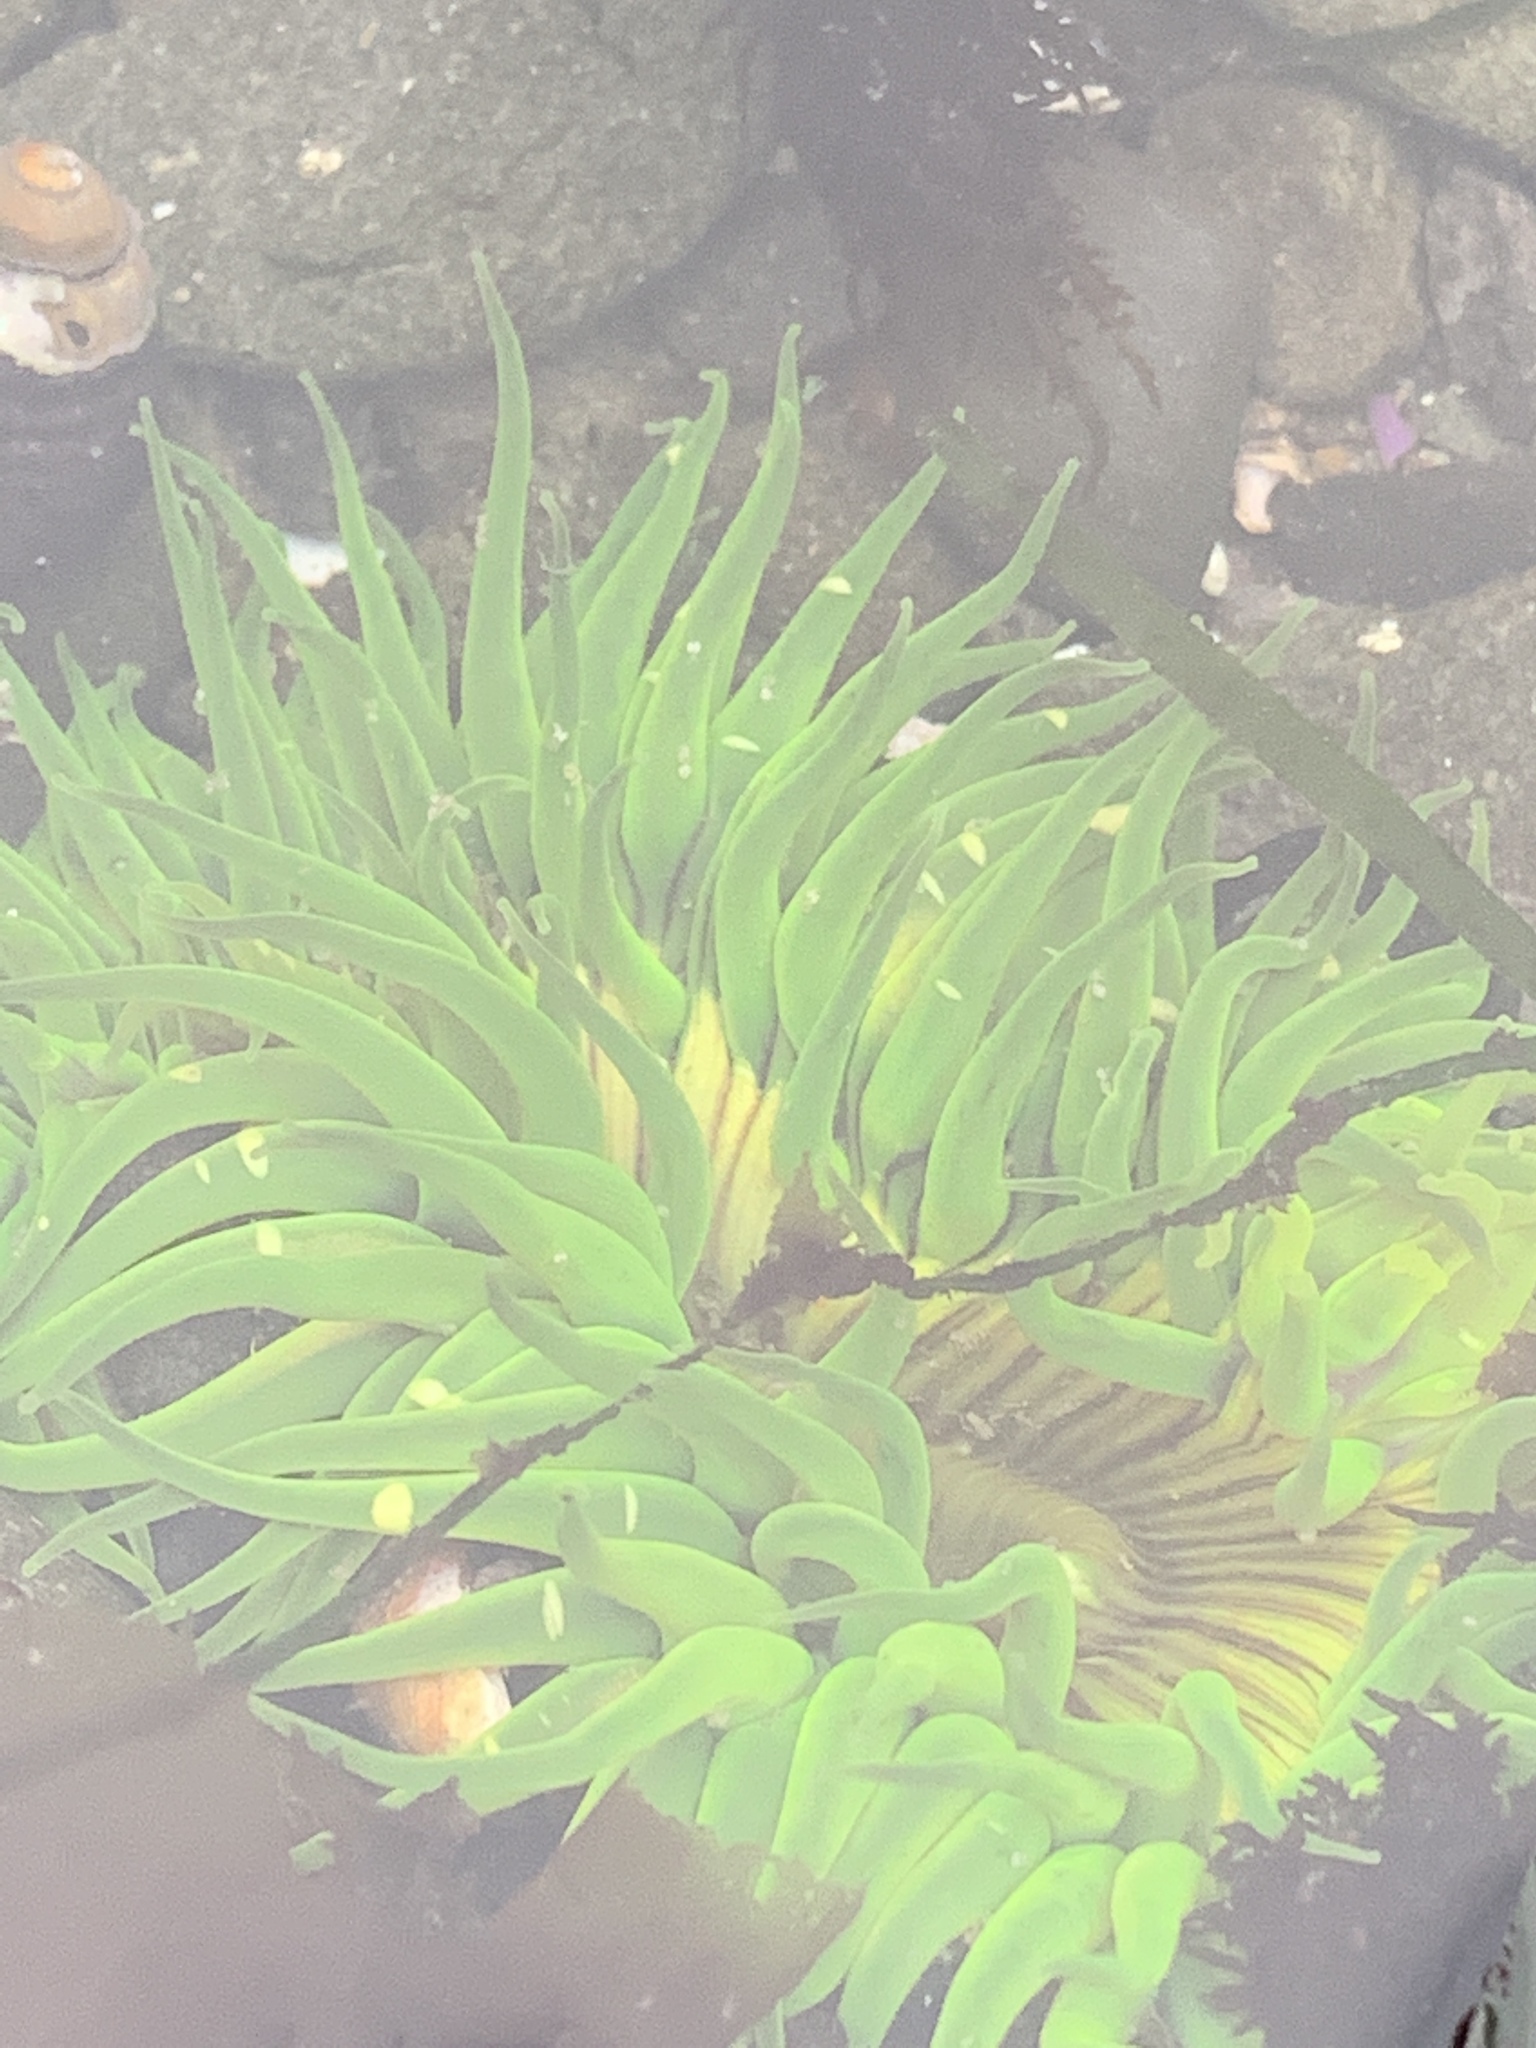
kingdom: Animalia
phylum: Cnidaria
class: Anthozoa
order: Actiniaria
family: Actiniidae
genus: Anthopleura
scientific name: Anthopleura sola
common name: Sun anemone
